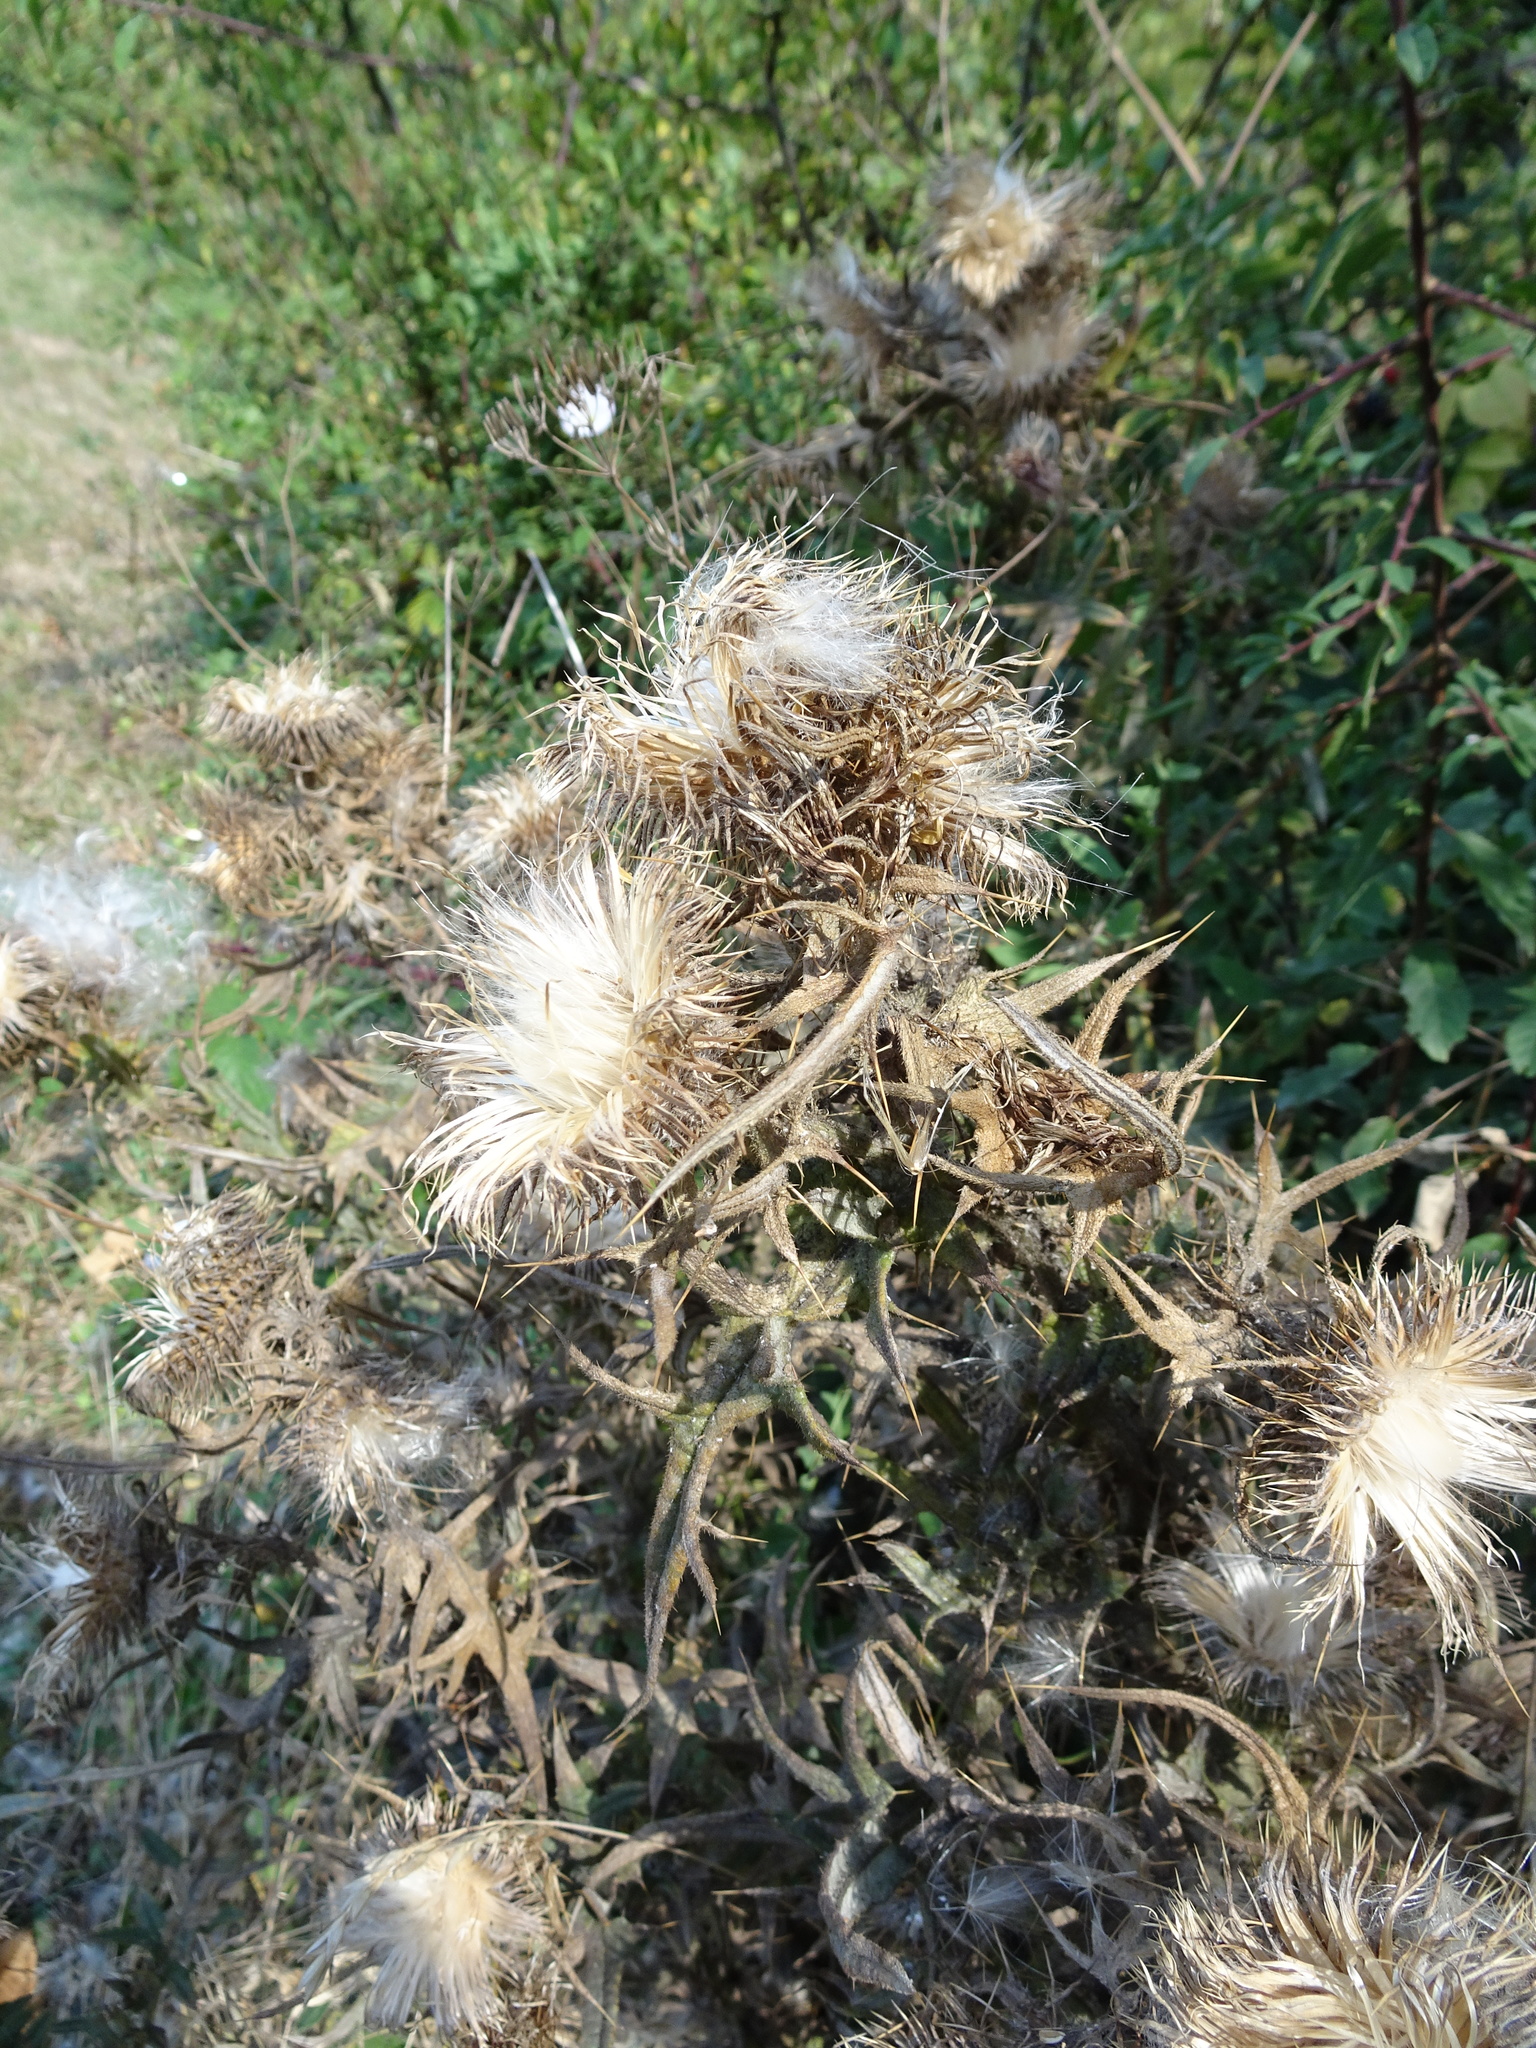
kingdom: Plantae
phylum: Tracheophyta
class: Magnoliopsida
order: Asterales
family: Asteraceae
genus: Cirsium
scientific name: Cirsium vulgare
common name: Bull thistle
